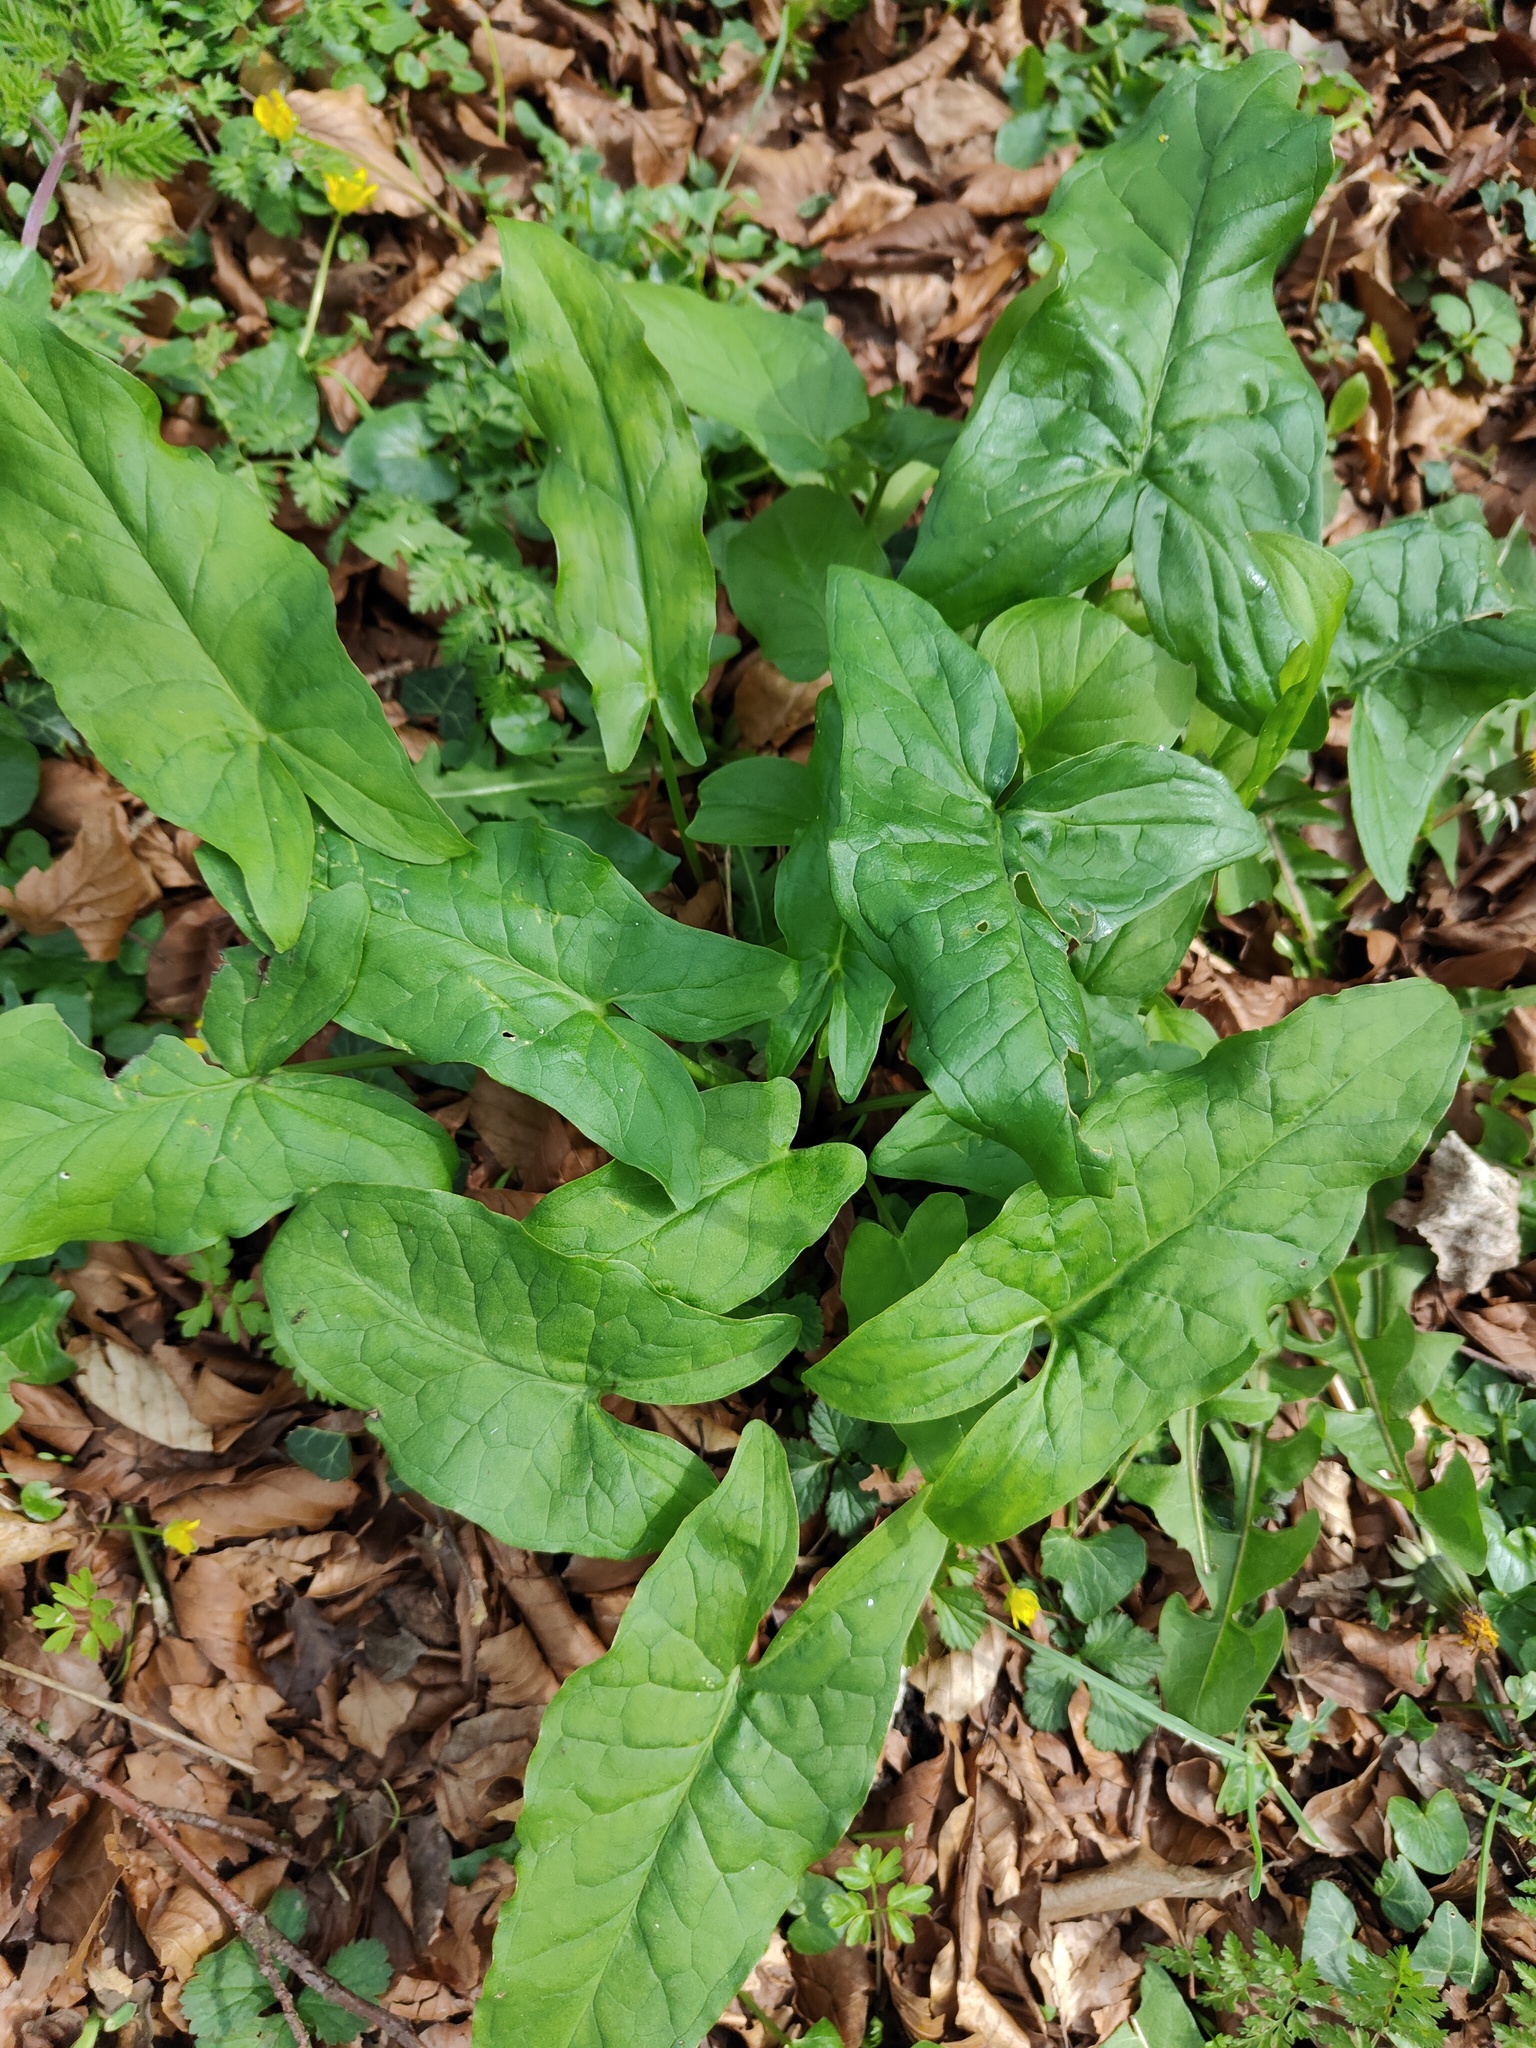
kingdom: Plantae
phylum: Tracheophyta
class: Liliopsida
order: Alismatales
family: Araceae
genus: Arum
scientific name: Arum maculatum
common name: Lords-and-ladies
